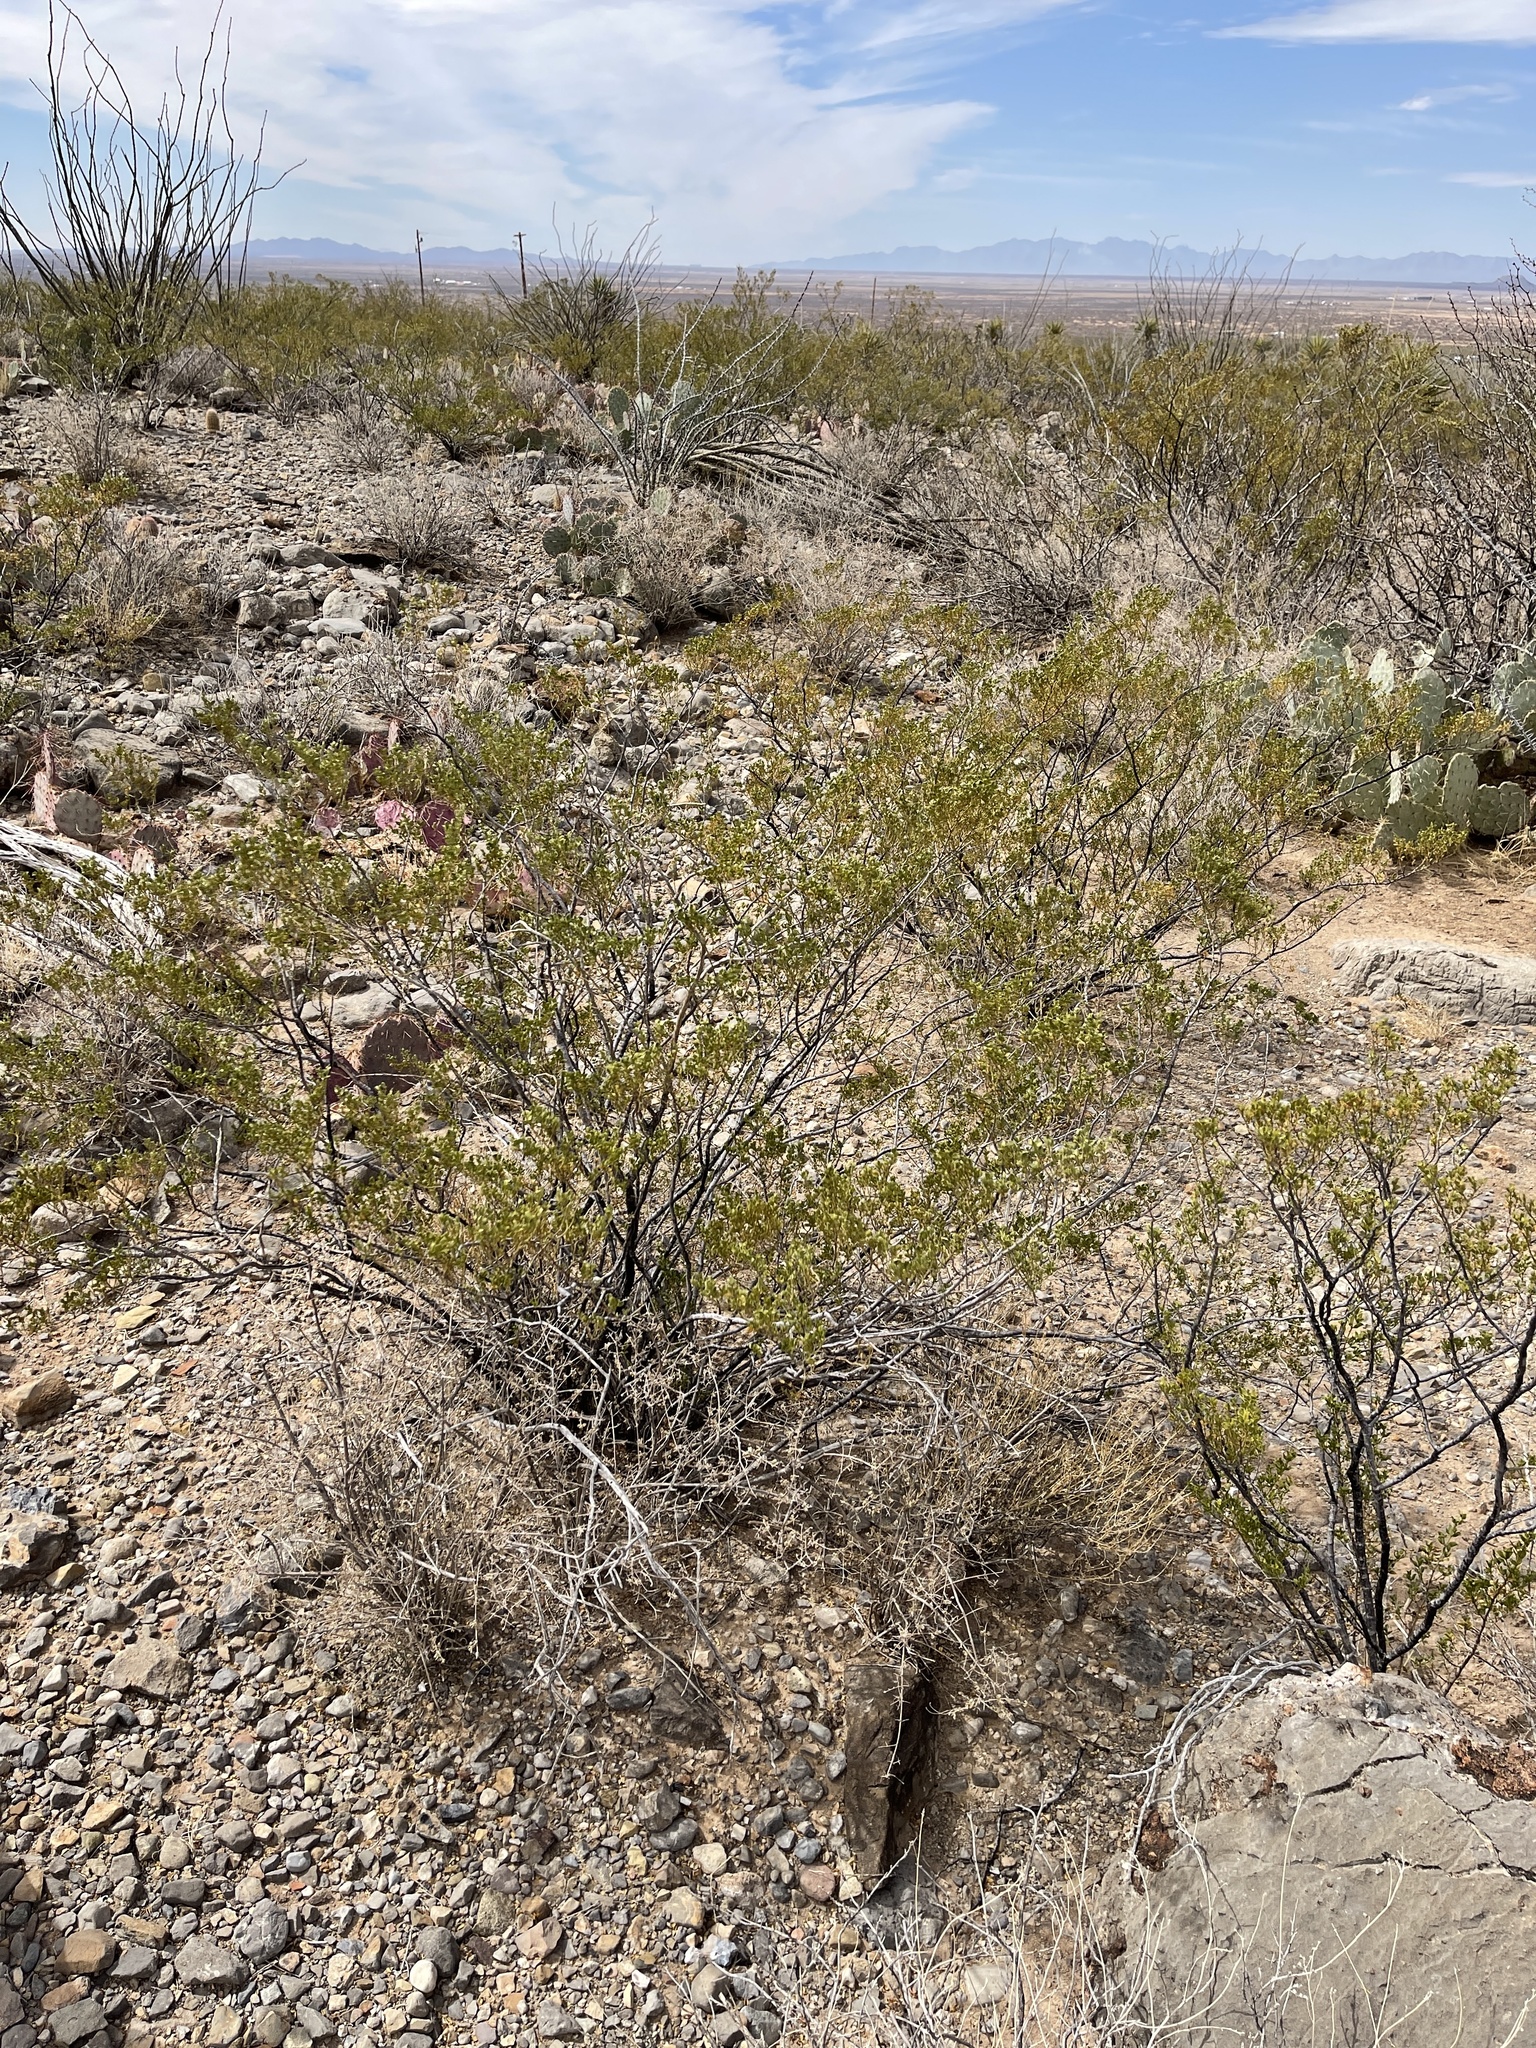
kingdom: Plantae
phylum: Tracheophyta
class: Magnoliopsida
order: Zygophyllales
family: Zygophyllaceae
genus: Larrea
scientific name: Larrea tridentata
